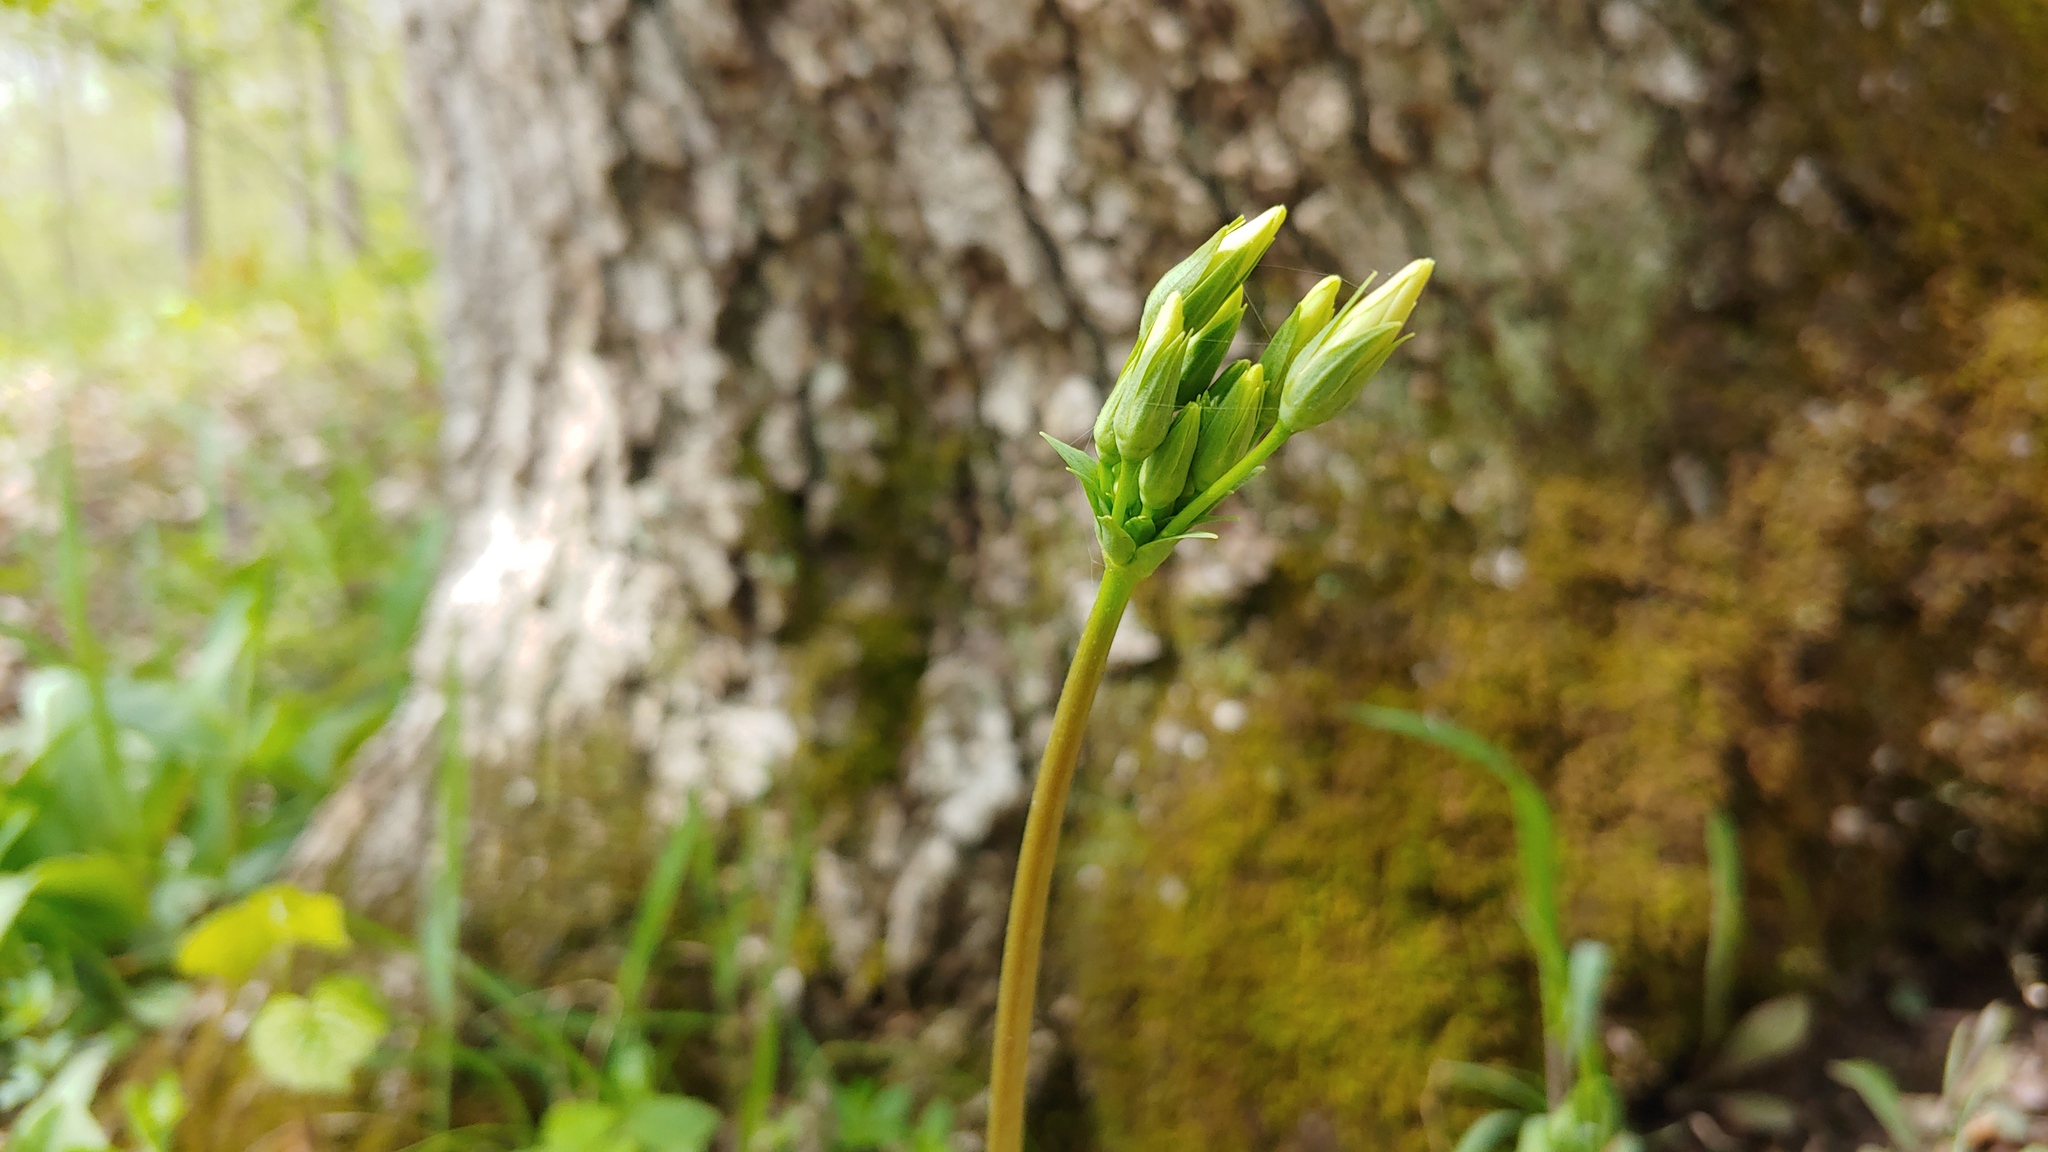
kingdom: Plantae
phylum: Tracheophyta
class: Magnoliopsida
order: Ericales
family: Primulaceae
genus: Dodecatheon
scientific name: Dodecatheon meadia
